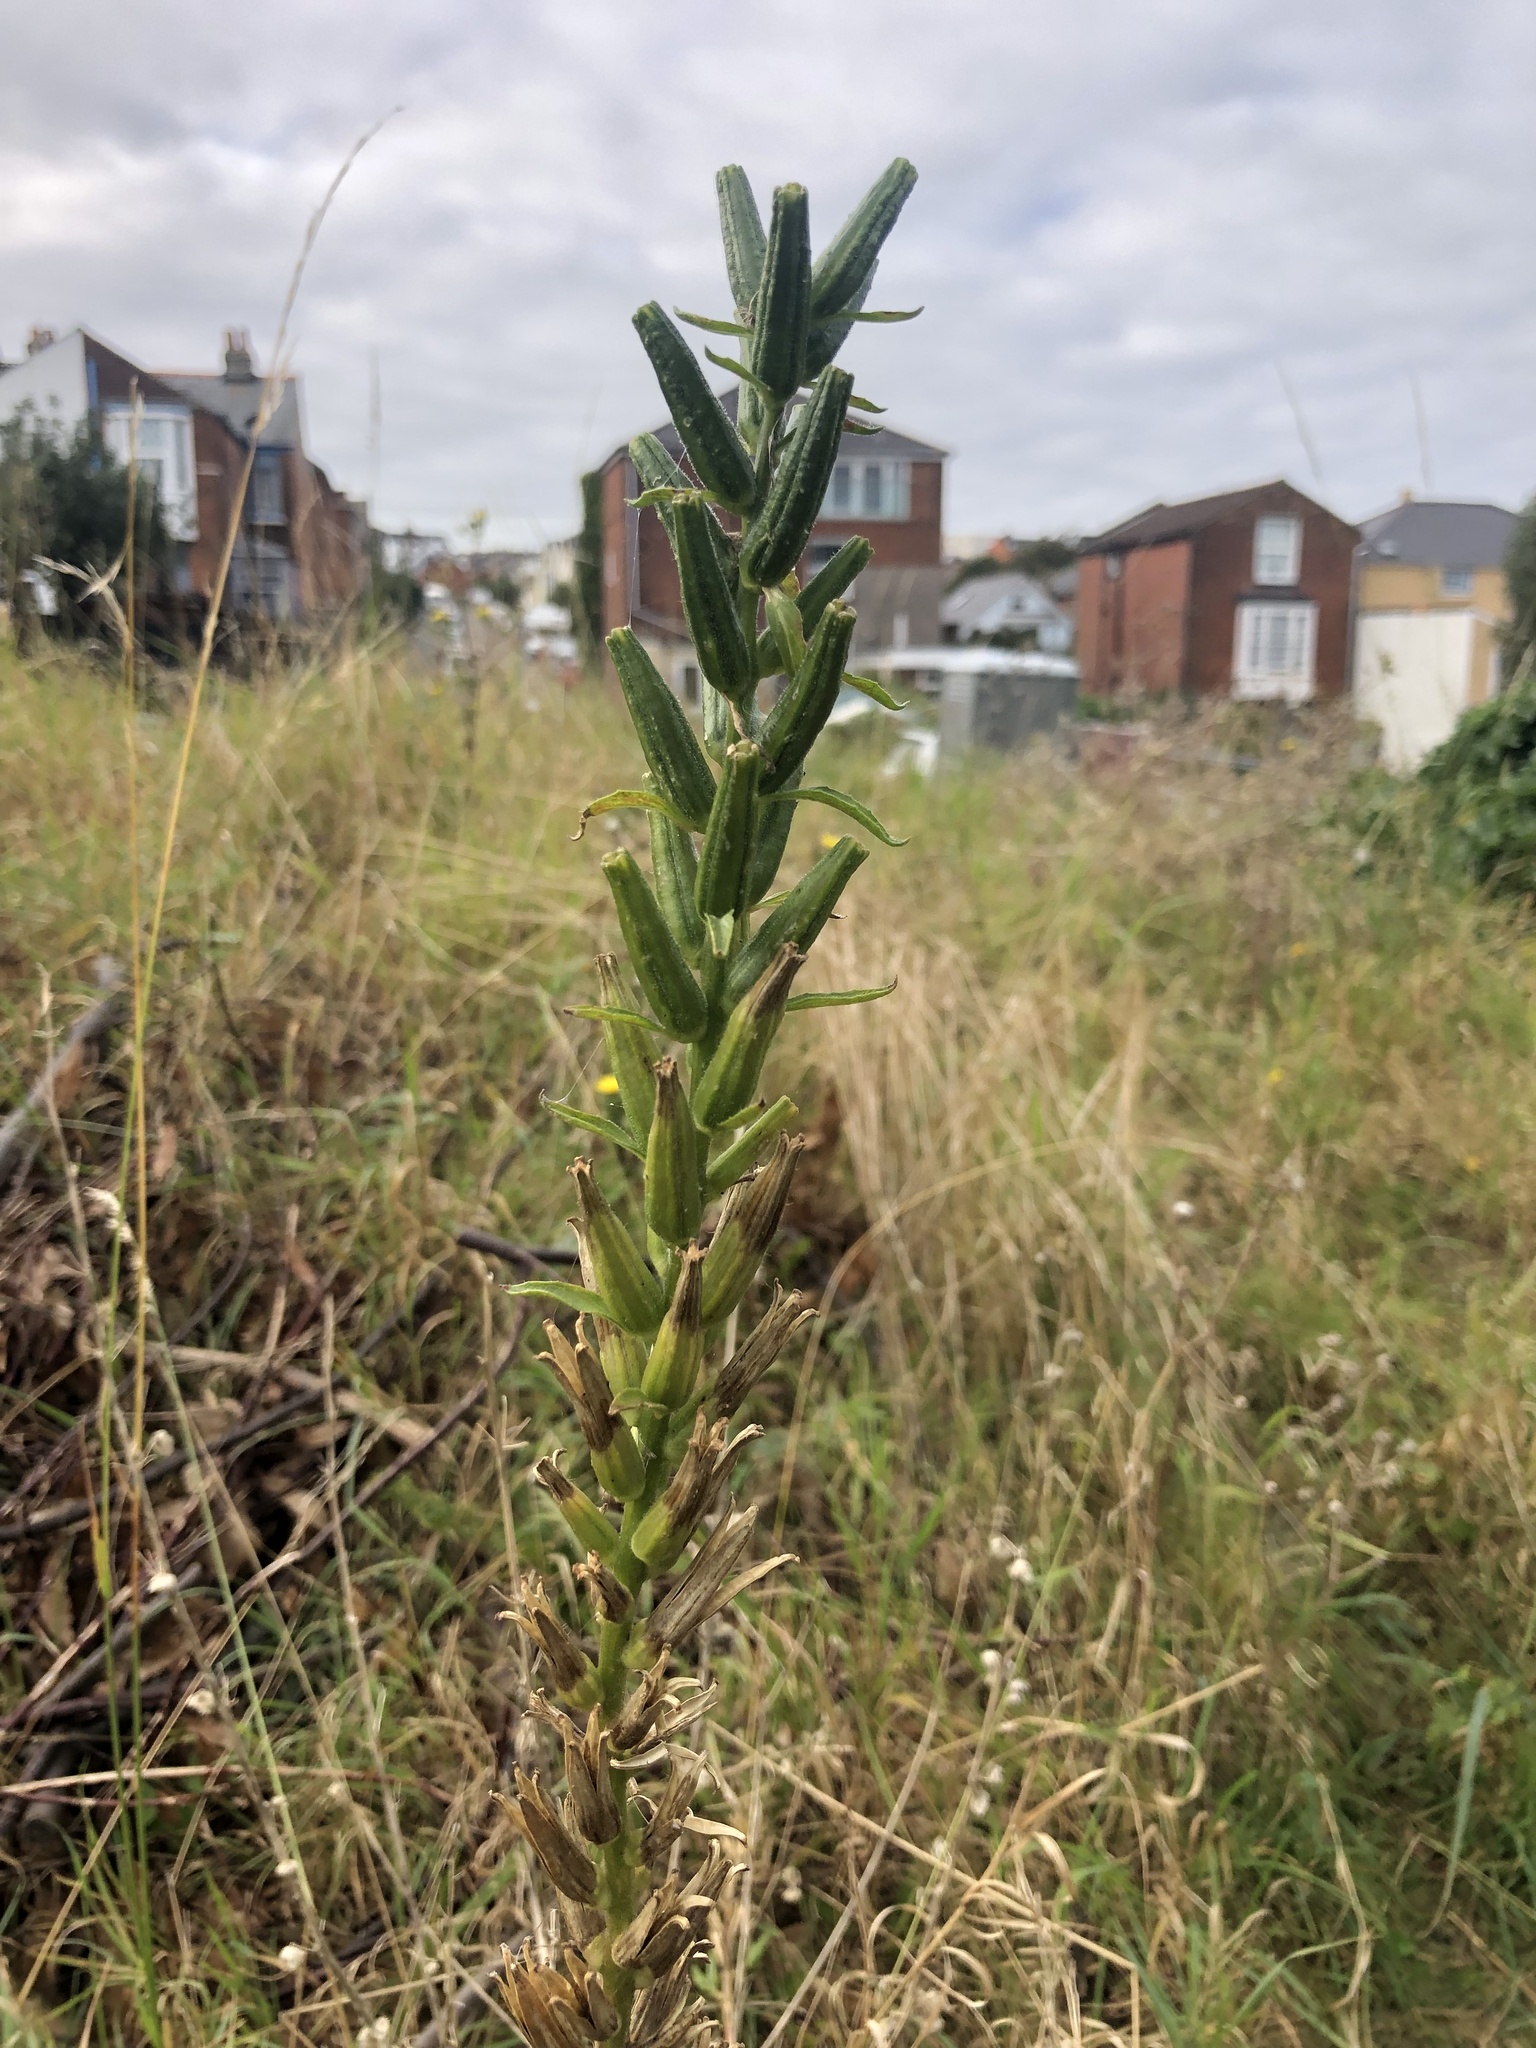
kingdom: Plantae
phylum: Tracheophyta
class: Magnoliopsida
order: Myrtales
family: Onagraceae
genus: Oenothera
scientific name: Oenothera biennis
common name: Common evening-primrose
